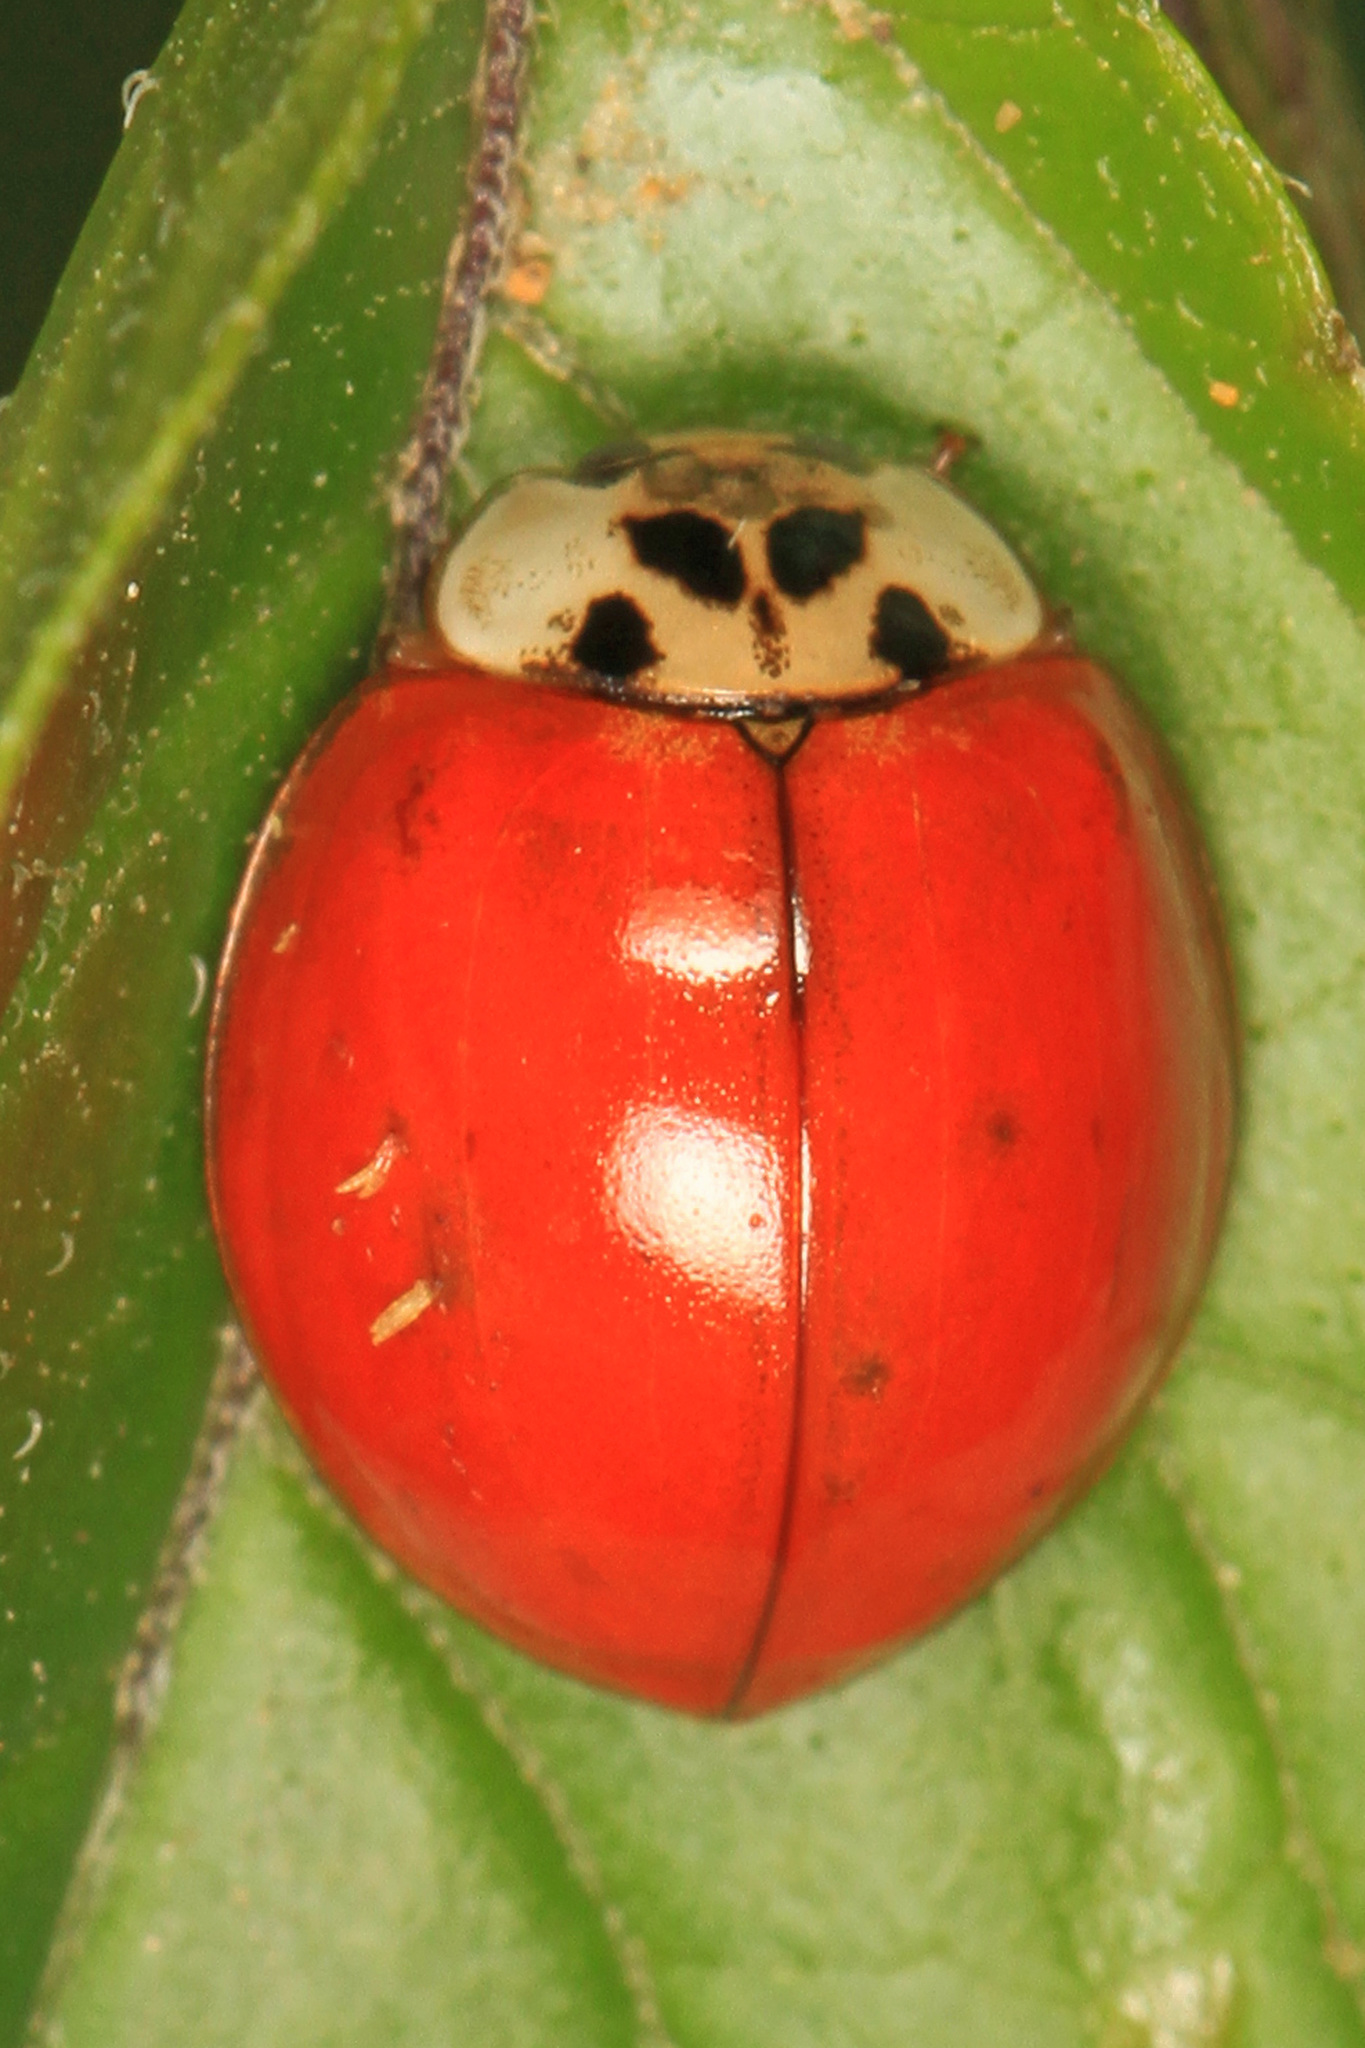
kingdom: Animalia
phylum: Arthropoda
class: Insecta
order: Coleoptera
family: Coccinellidae
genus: Harmonia
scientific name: Harmonia axyridis
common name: Harlequin ladybird
